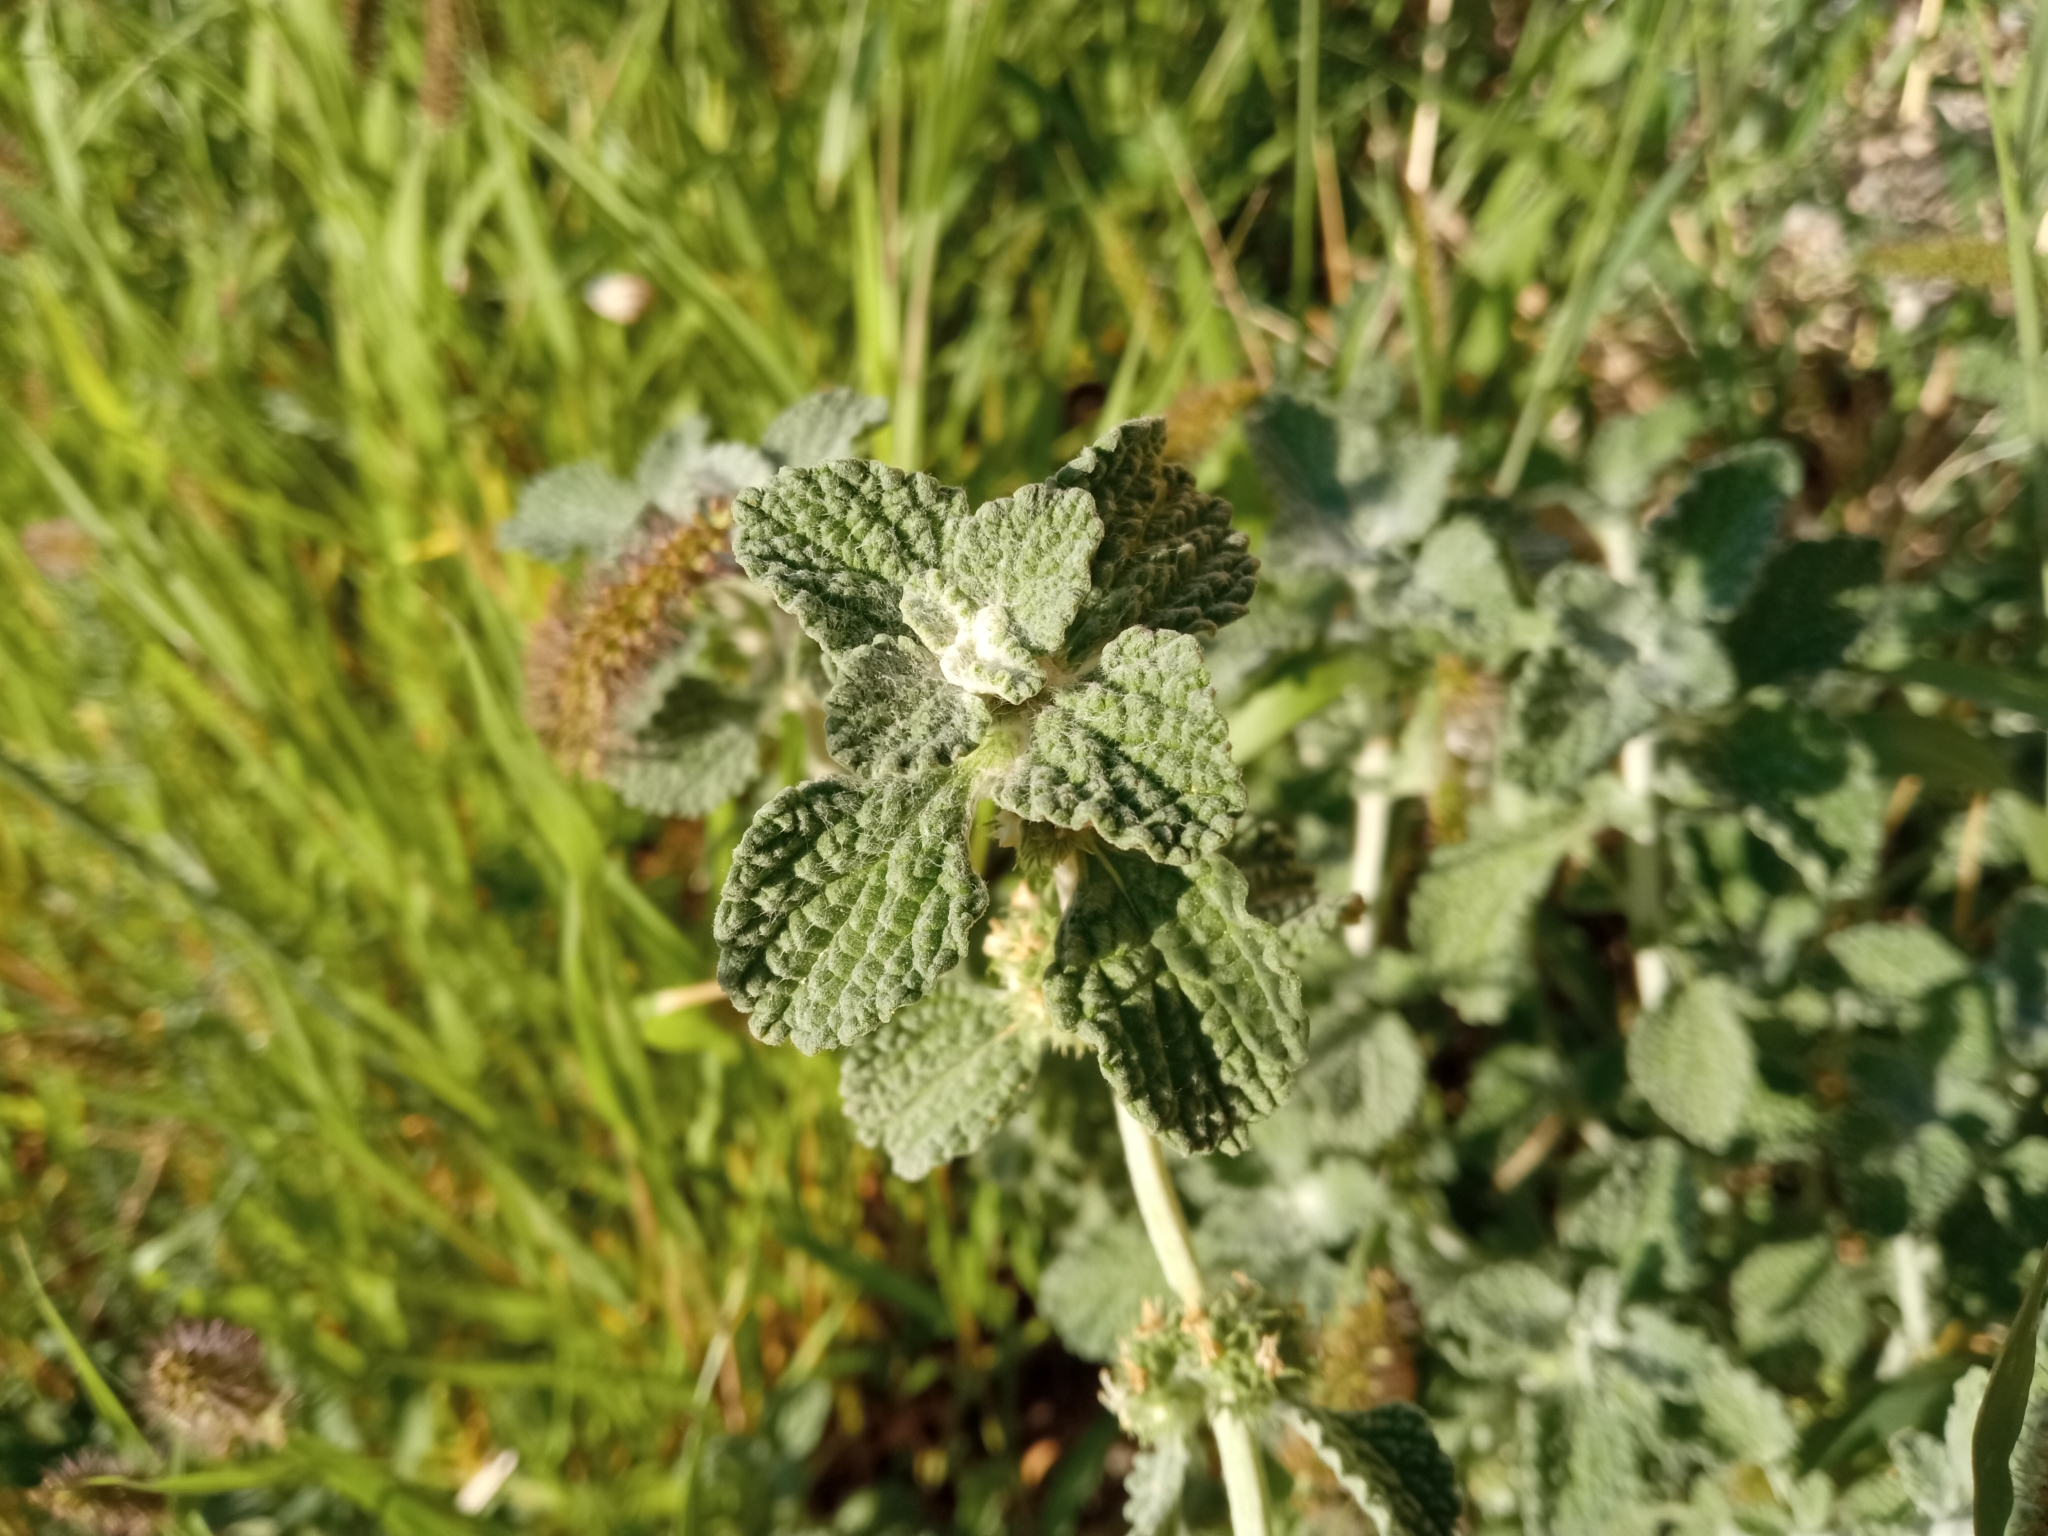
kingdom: Plantae
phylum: Tracheophyta
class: Magnoliopsida
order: Lamiales
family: Lamiaceae
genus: Marrubium
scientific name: Marrubium vulgare
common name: Horehound
